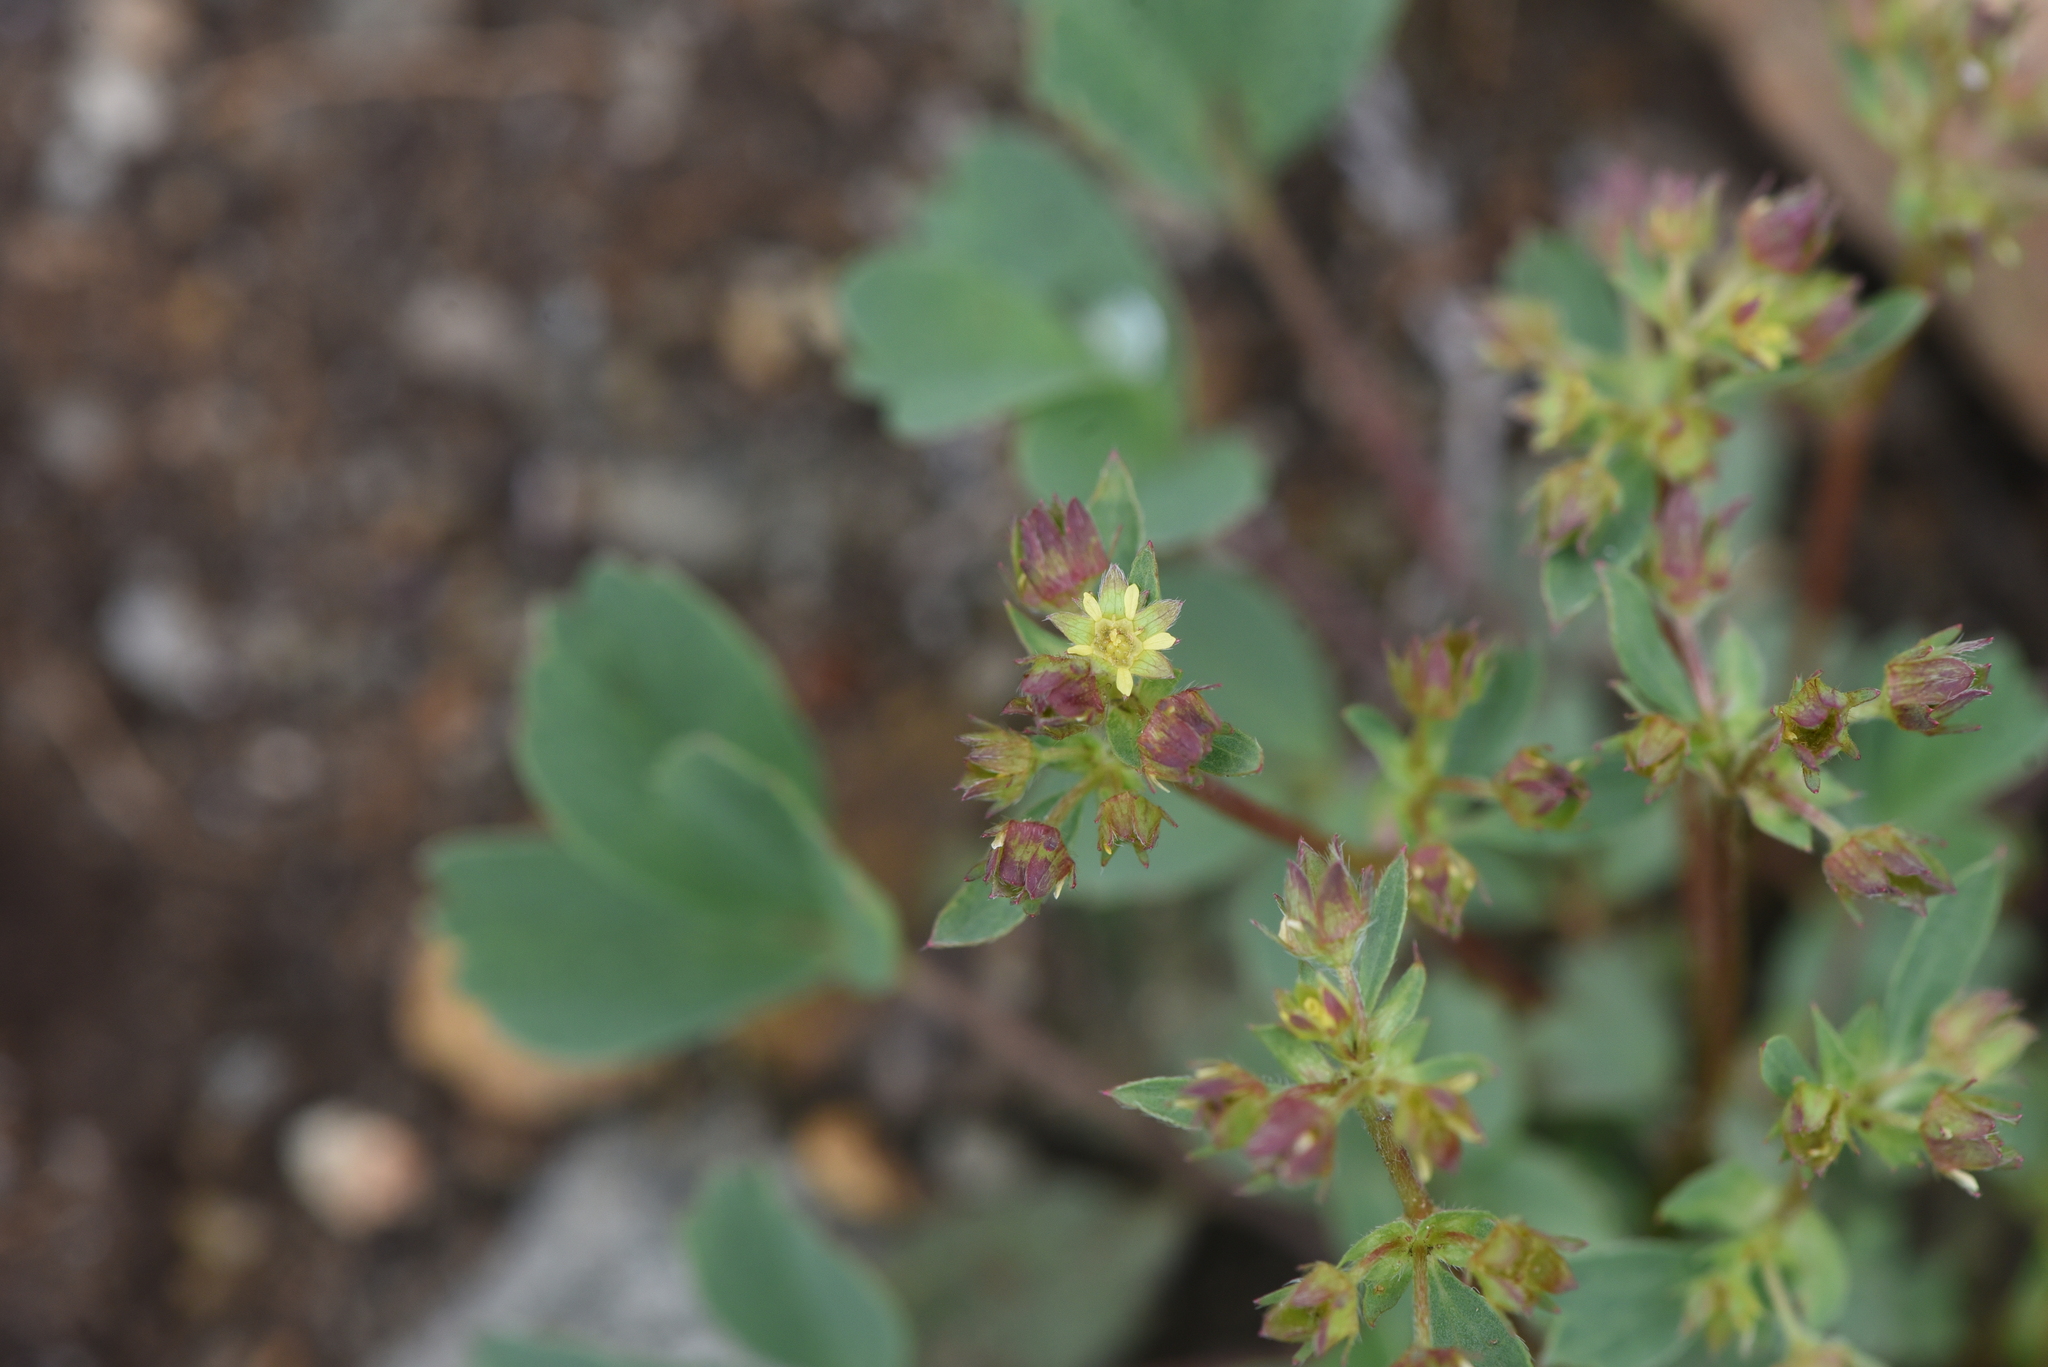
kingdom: Plantae
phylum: Tracheophyta
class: Magnoliopsida
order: Rosales
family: Rosaceae
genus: Sibbaldia
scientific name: Sibbaldia procumbens
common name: Creeping sibbaldia
